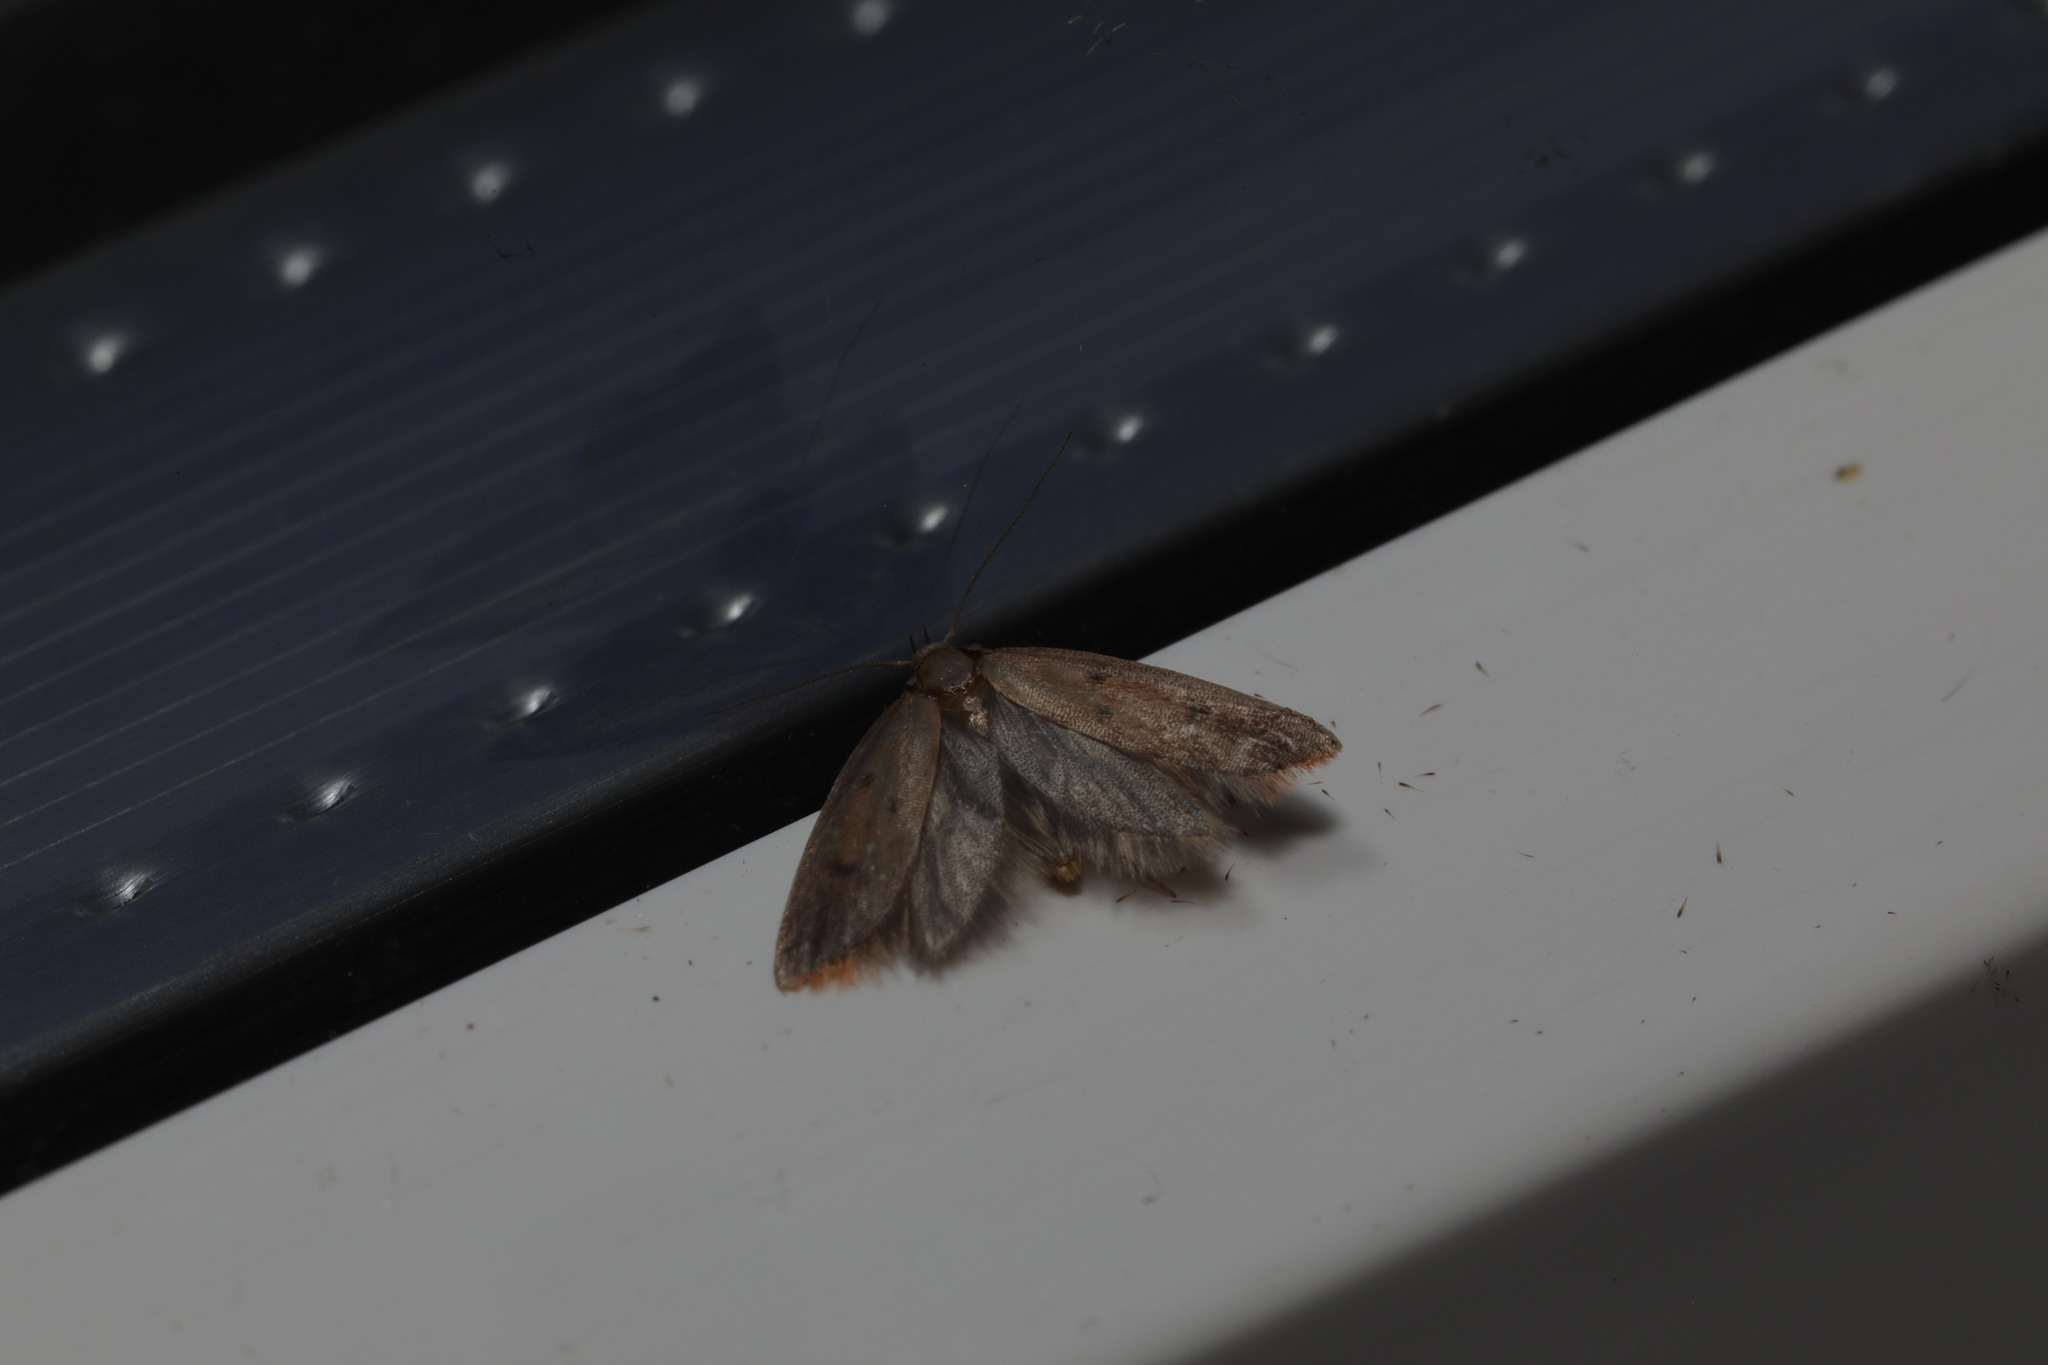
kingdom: Animalia
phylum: Arthropoda
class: Insecta
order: Lepidoptera
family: Oecophoridae
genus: Hofmannophila
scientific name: Hofmannophila pseudospretella
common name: Brown house moth
